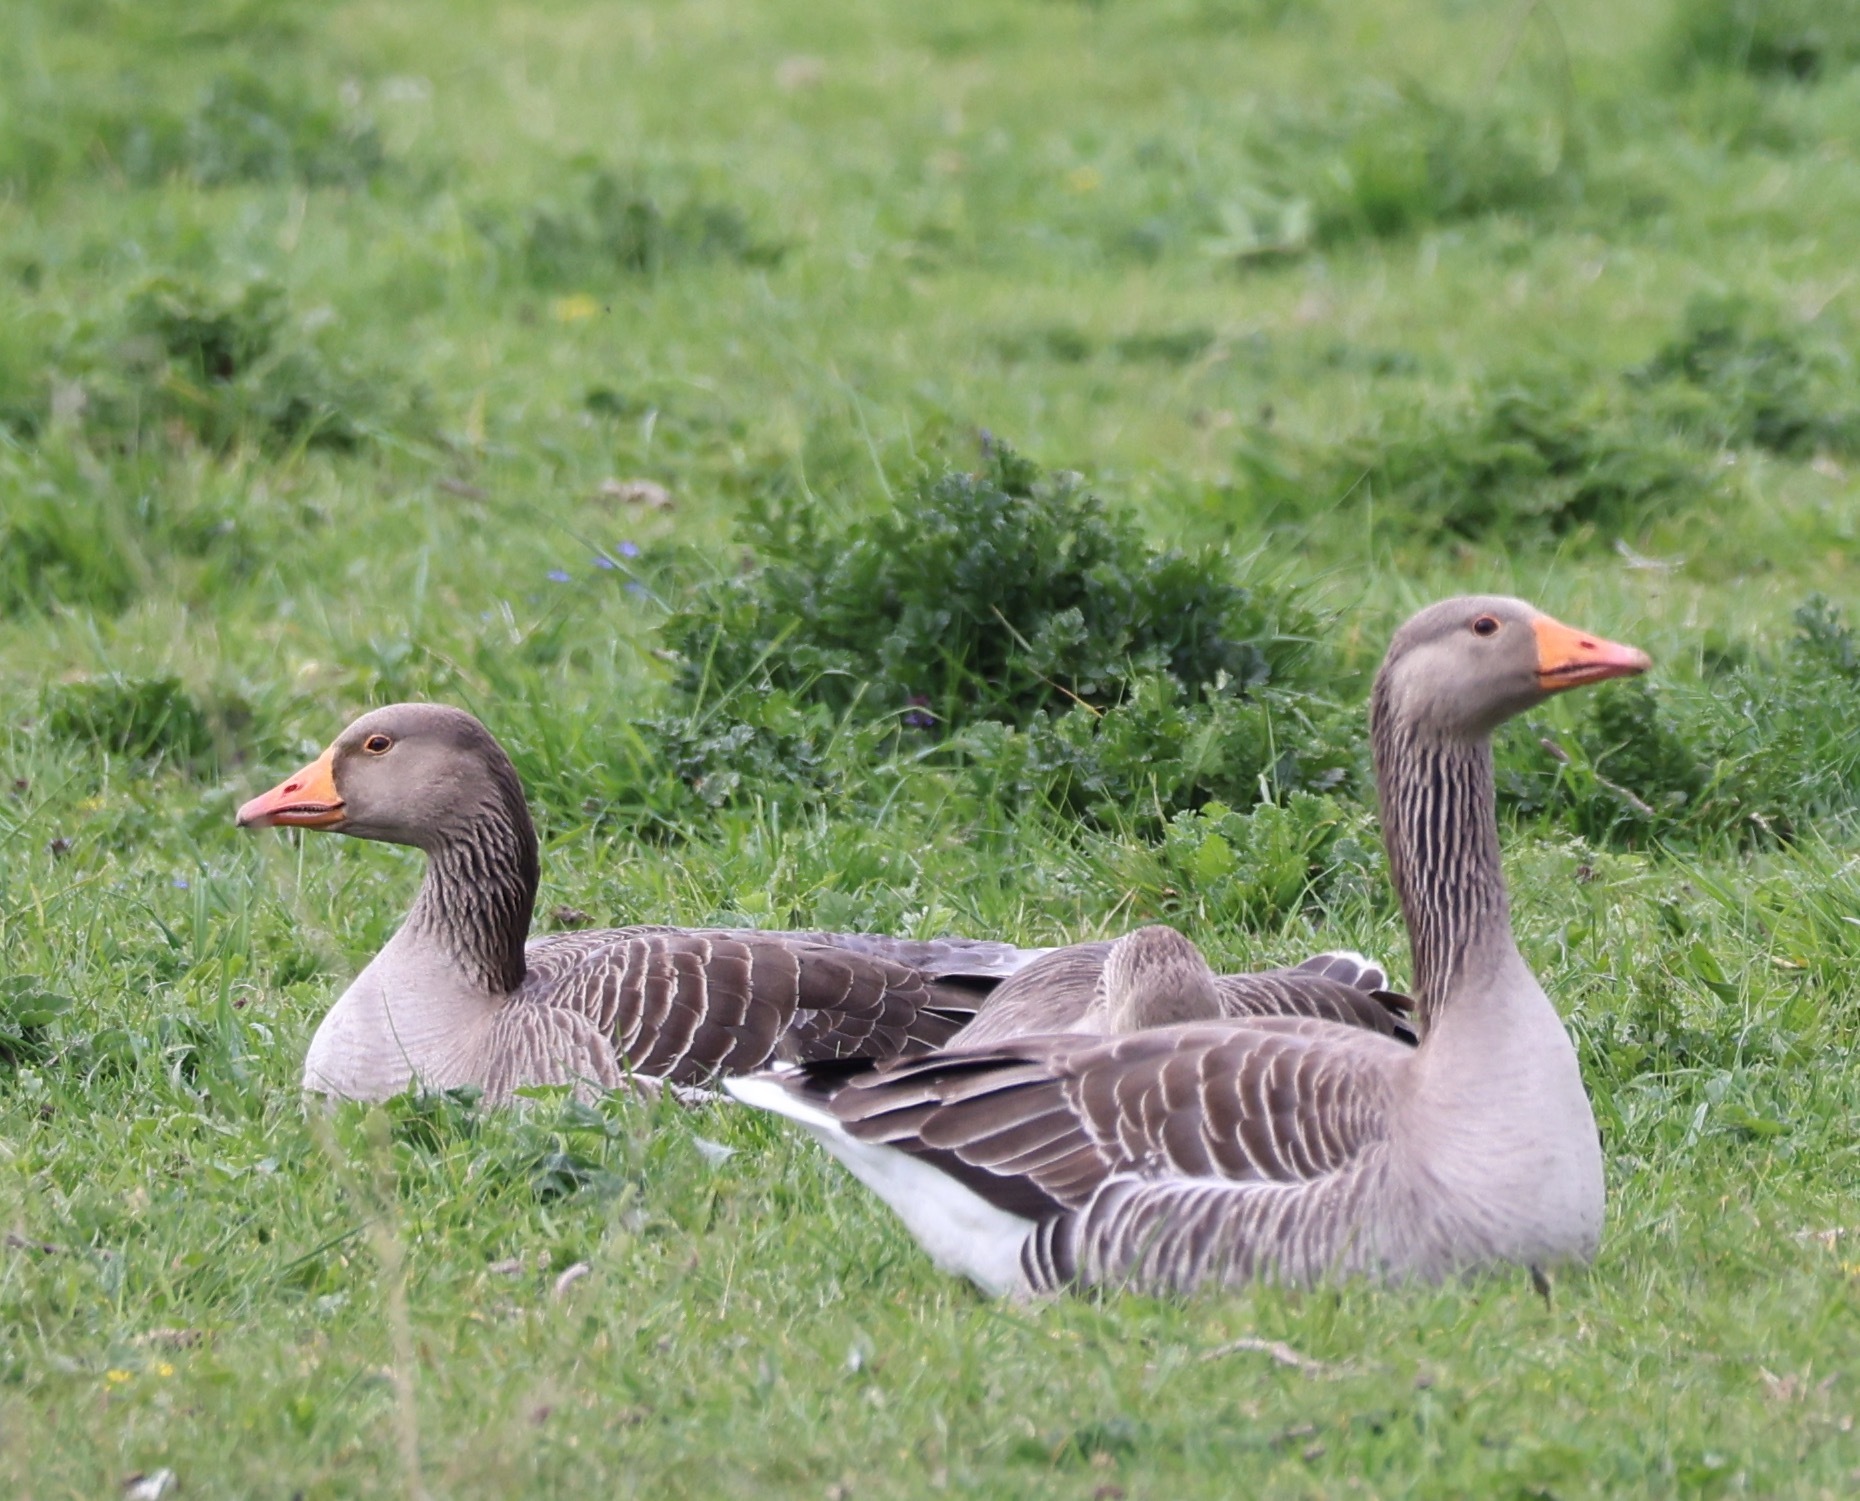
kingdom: Animalia
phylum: Chordata
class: Aves
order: Anseriformes
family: Anatidae
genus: Anser
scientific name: Anser anser
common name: Greylag goose
